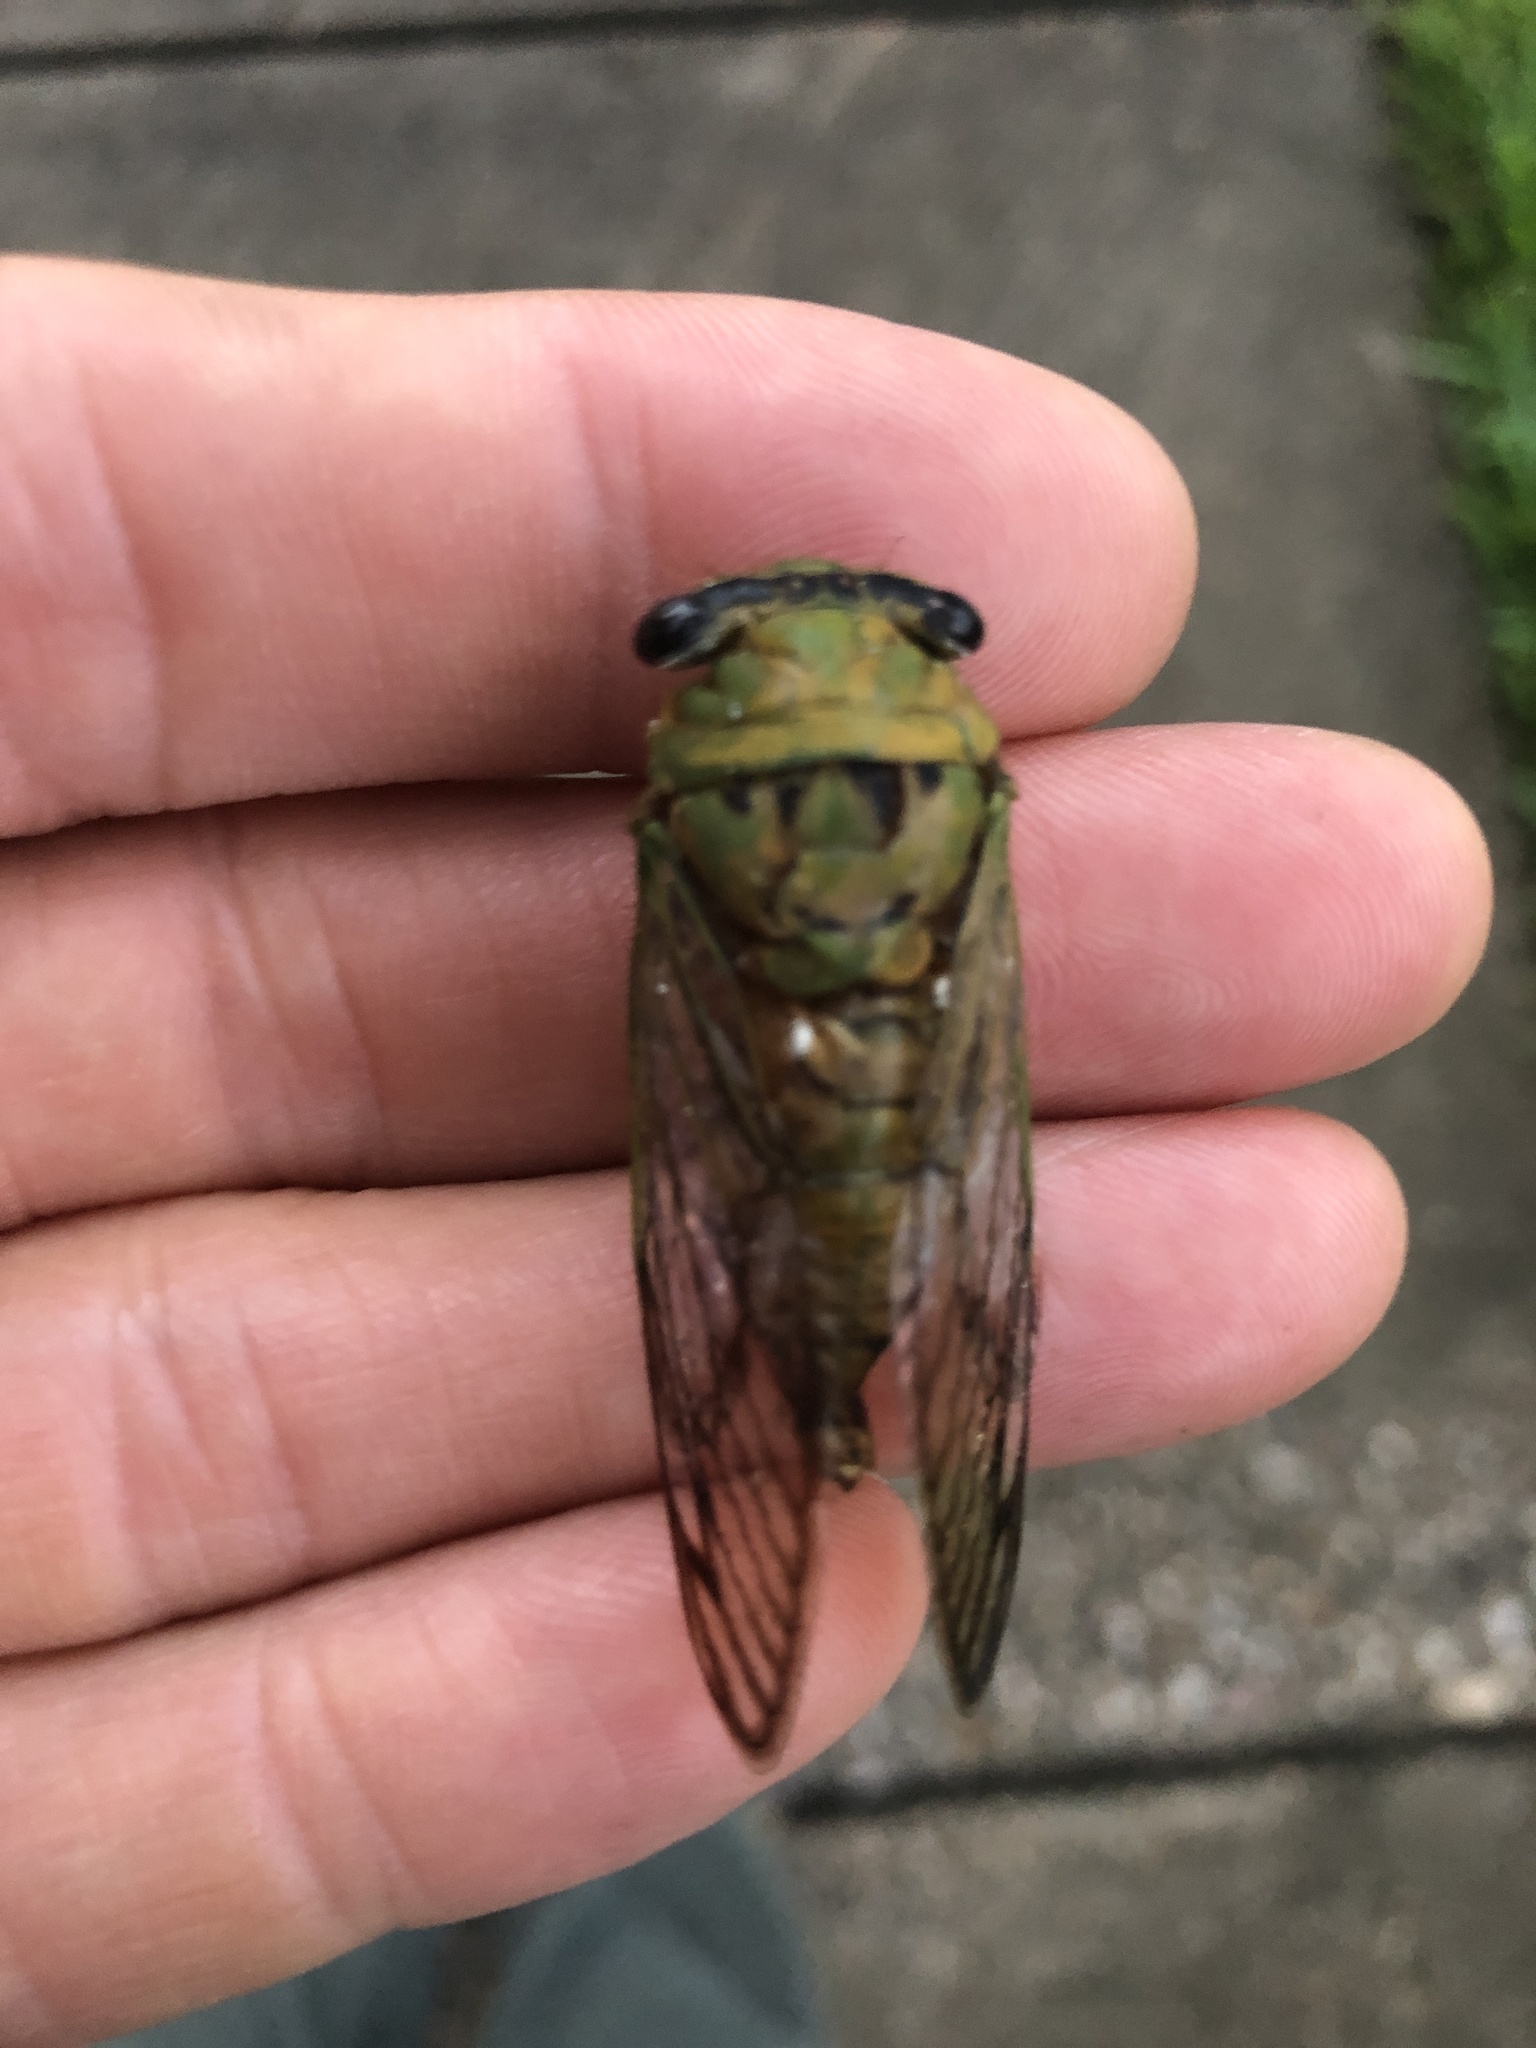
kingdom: Animalia
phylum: Arthropoda
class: Insecta
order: Hemiptera
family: Cicadidae
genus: Neotibicen
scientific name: Neotibicen superbus
